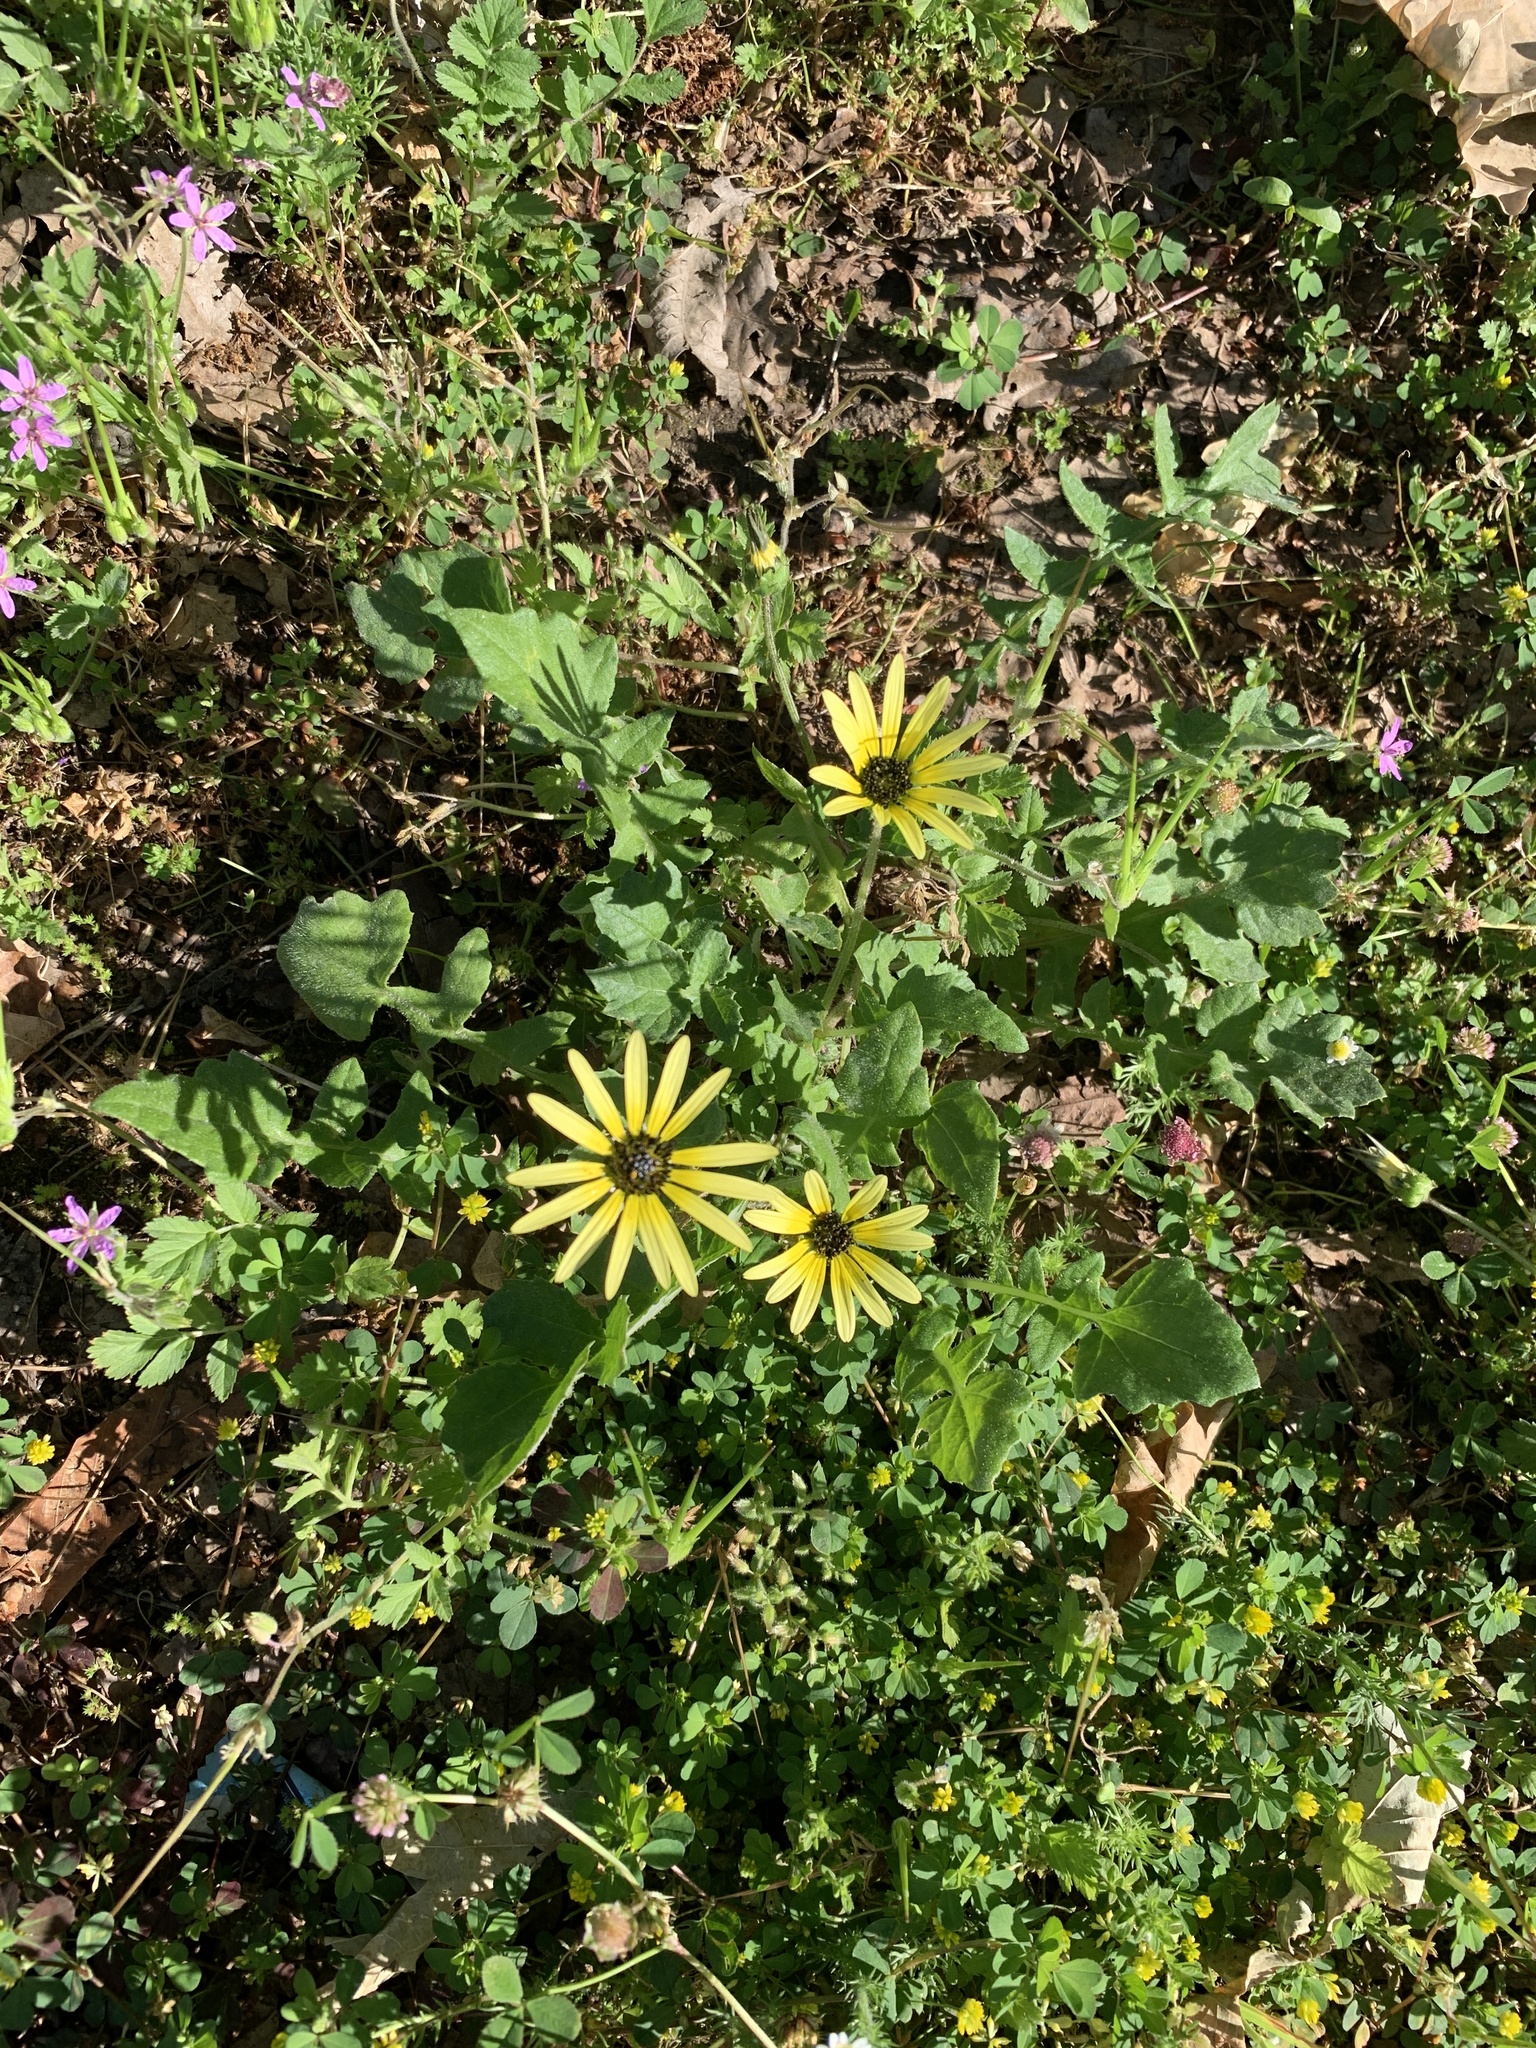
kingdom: Plantae
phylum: Tracheophyta
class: Magnoliopsida
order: Asterales
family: Asteraceae
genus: Arctotheca
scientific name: Arctotheca calendula
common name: Capeweed
